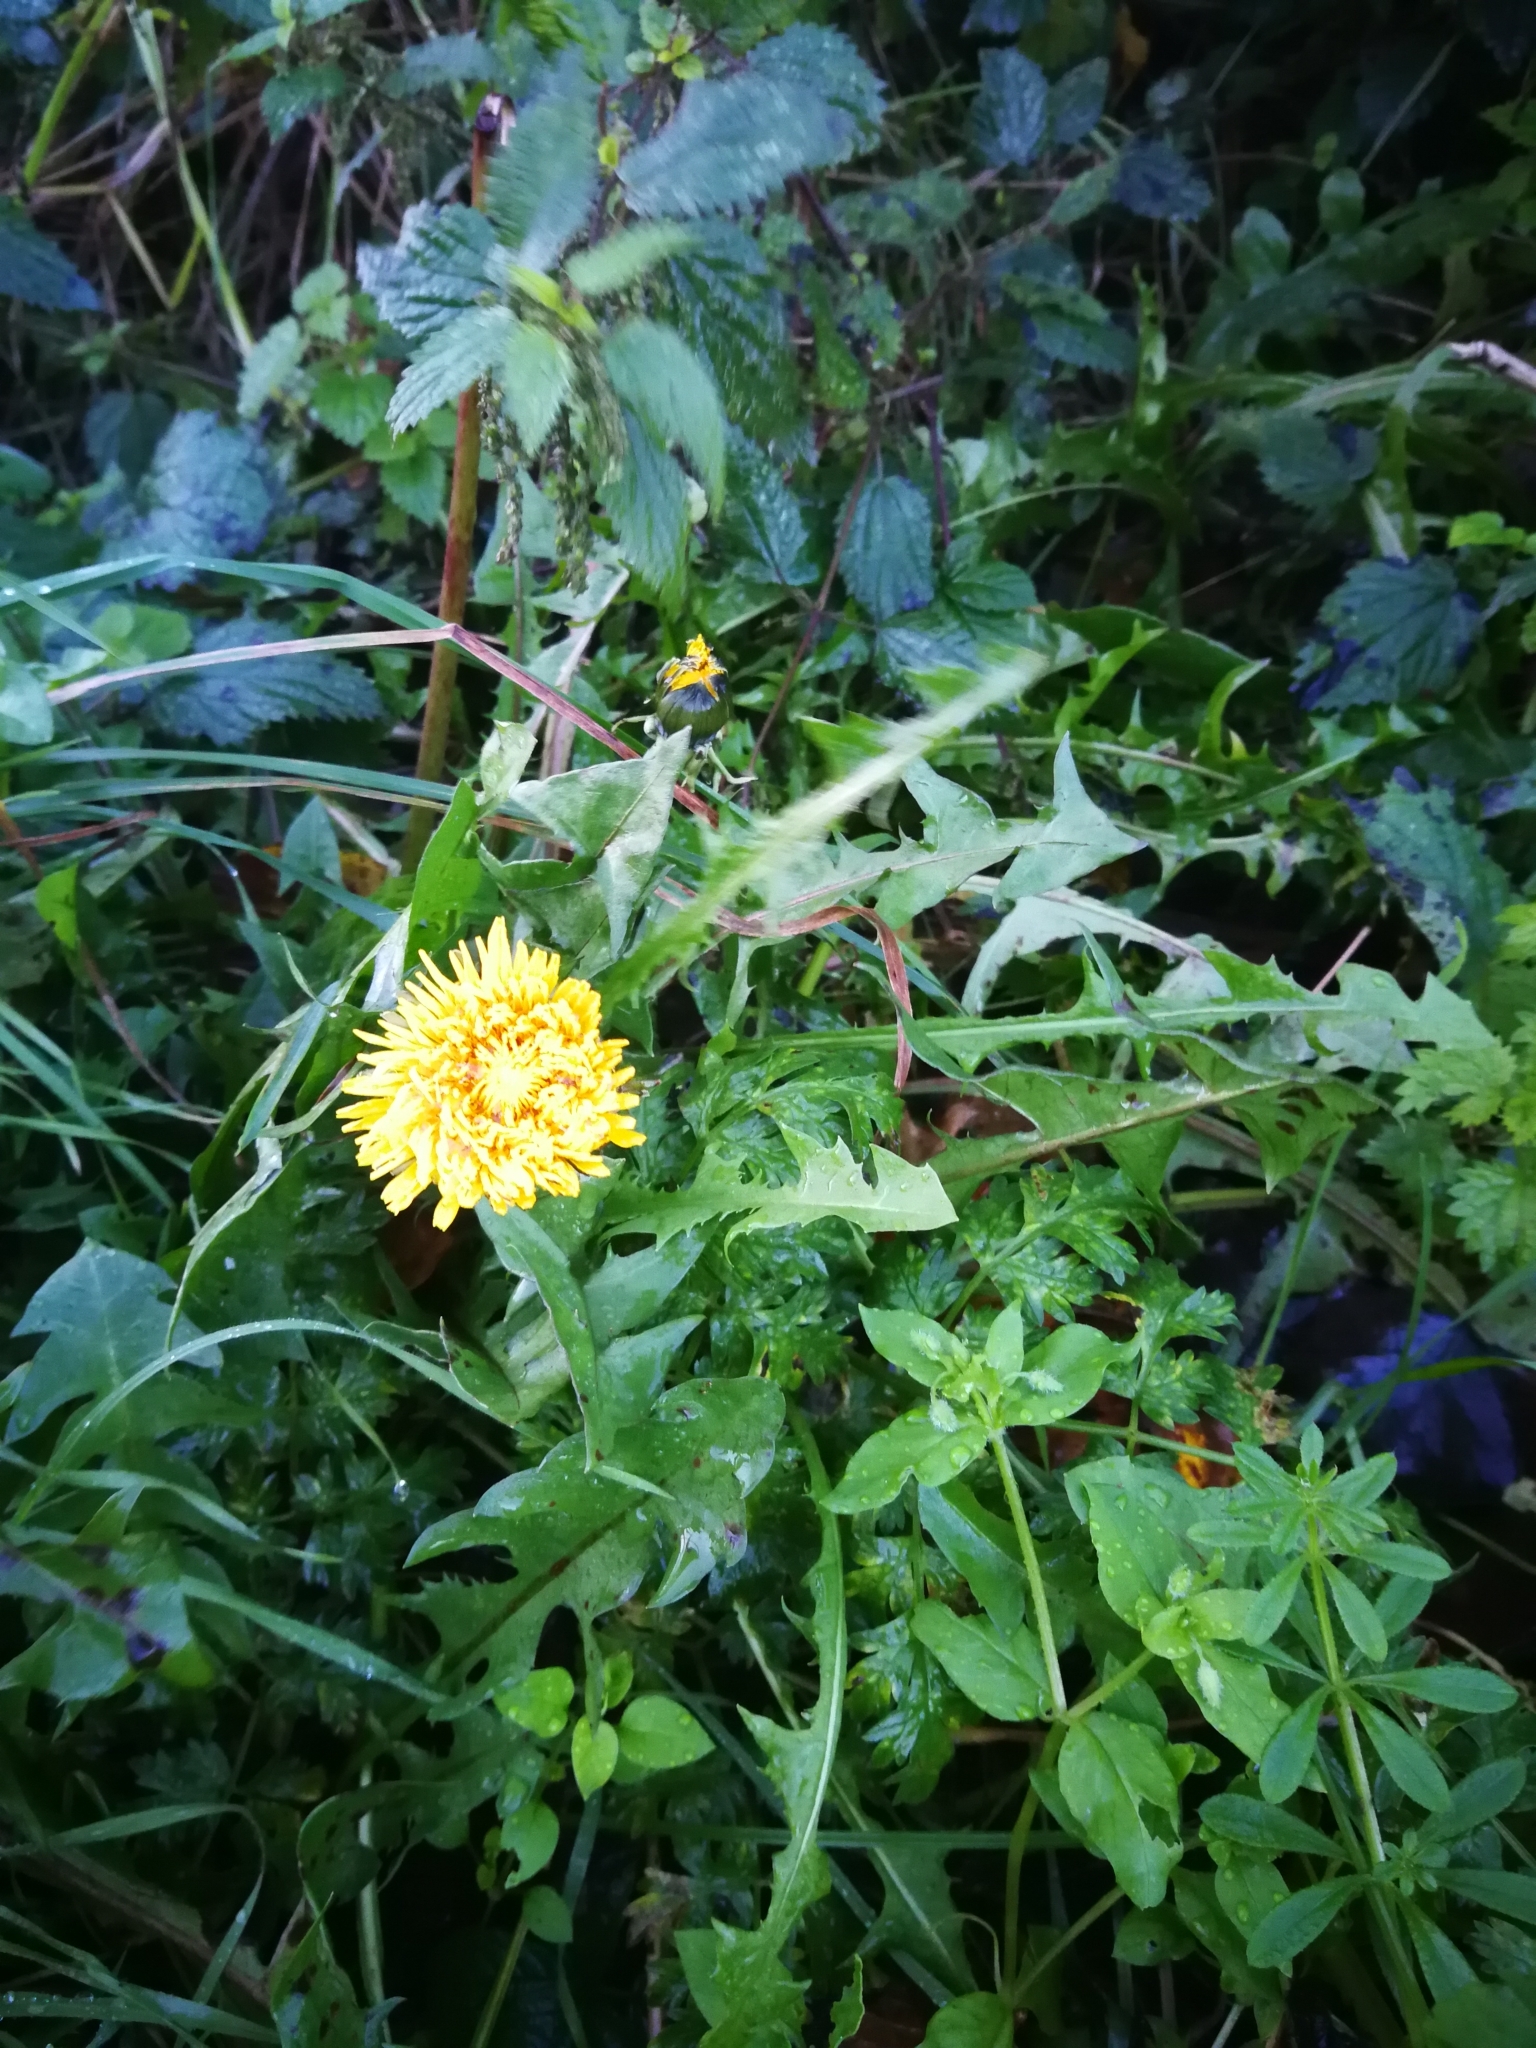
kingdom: Plantae
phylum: Tracheophyta
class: Magnoliopsida
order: Asterales
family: Asteraceae
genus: Taraxacum
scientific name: Taraxacum officinale
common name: Common dandelion
